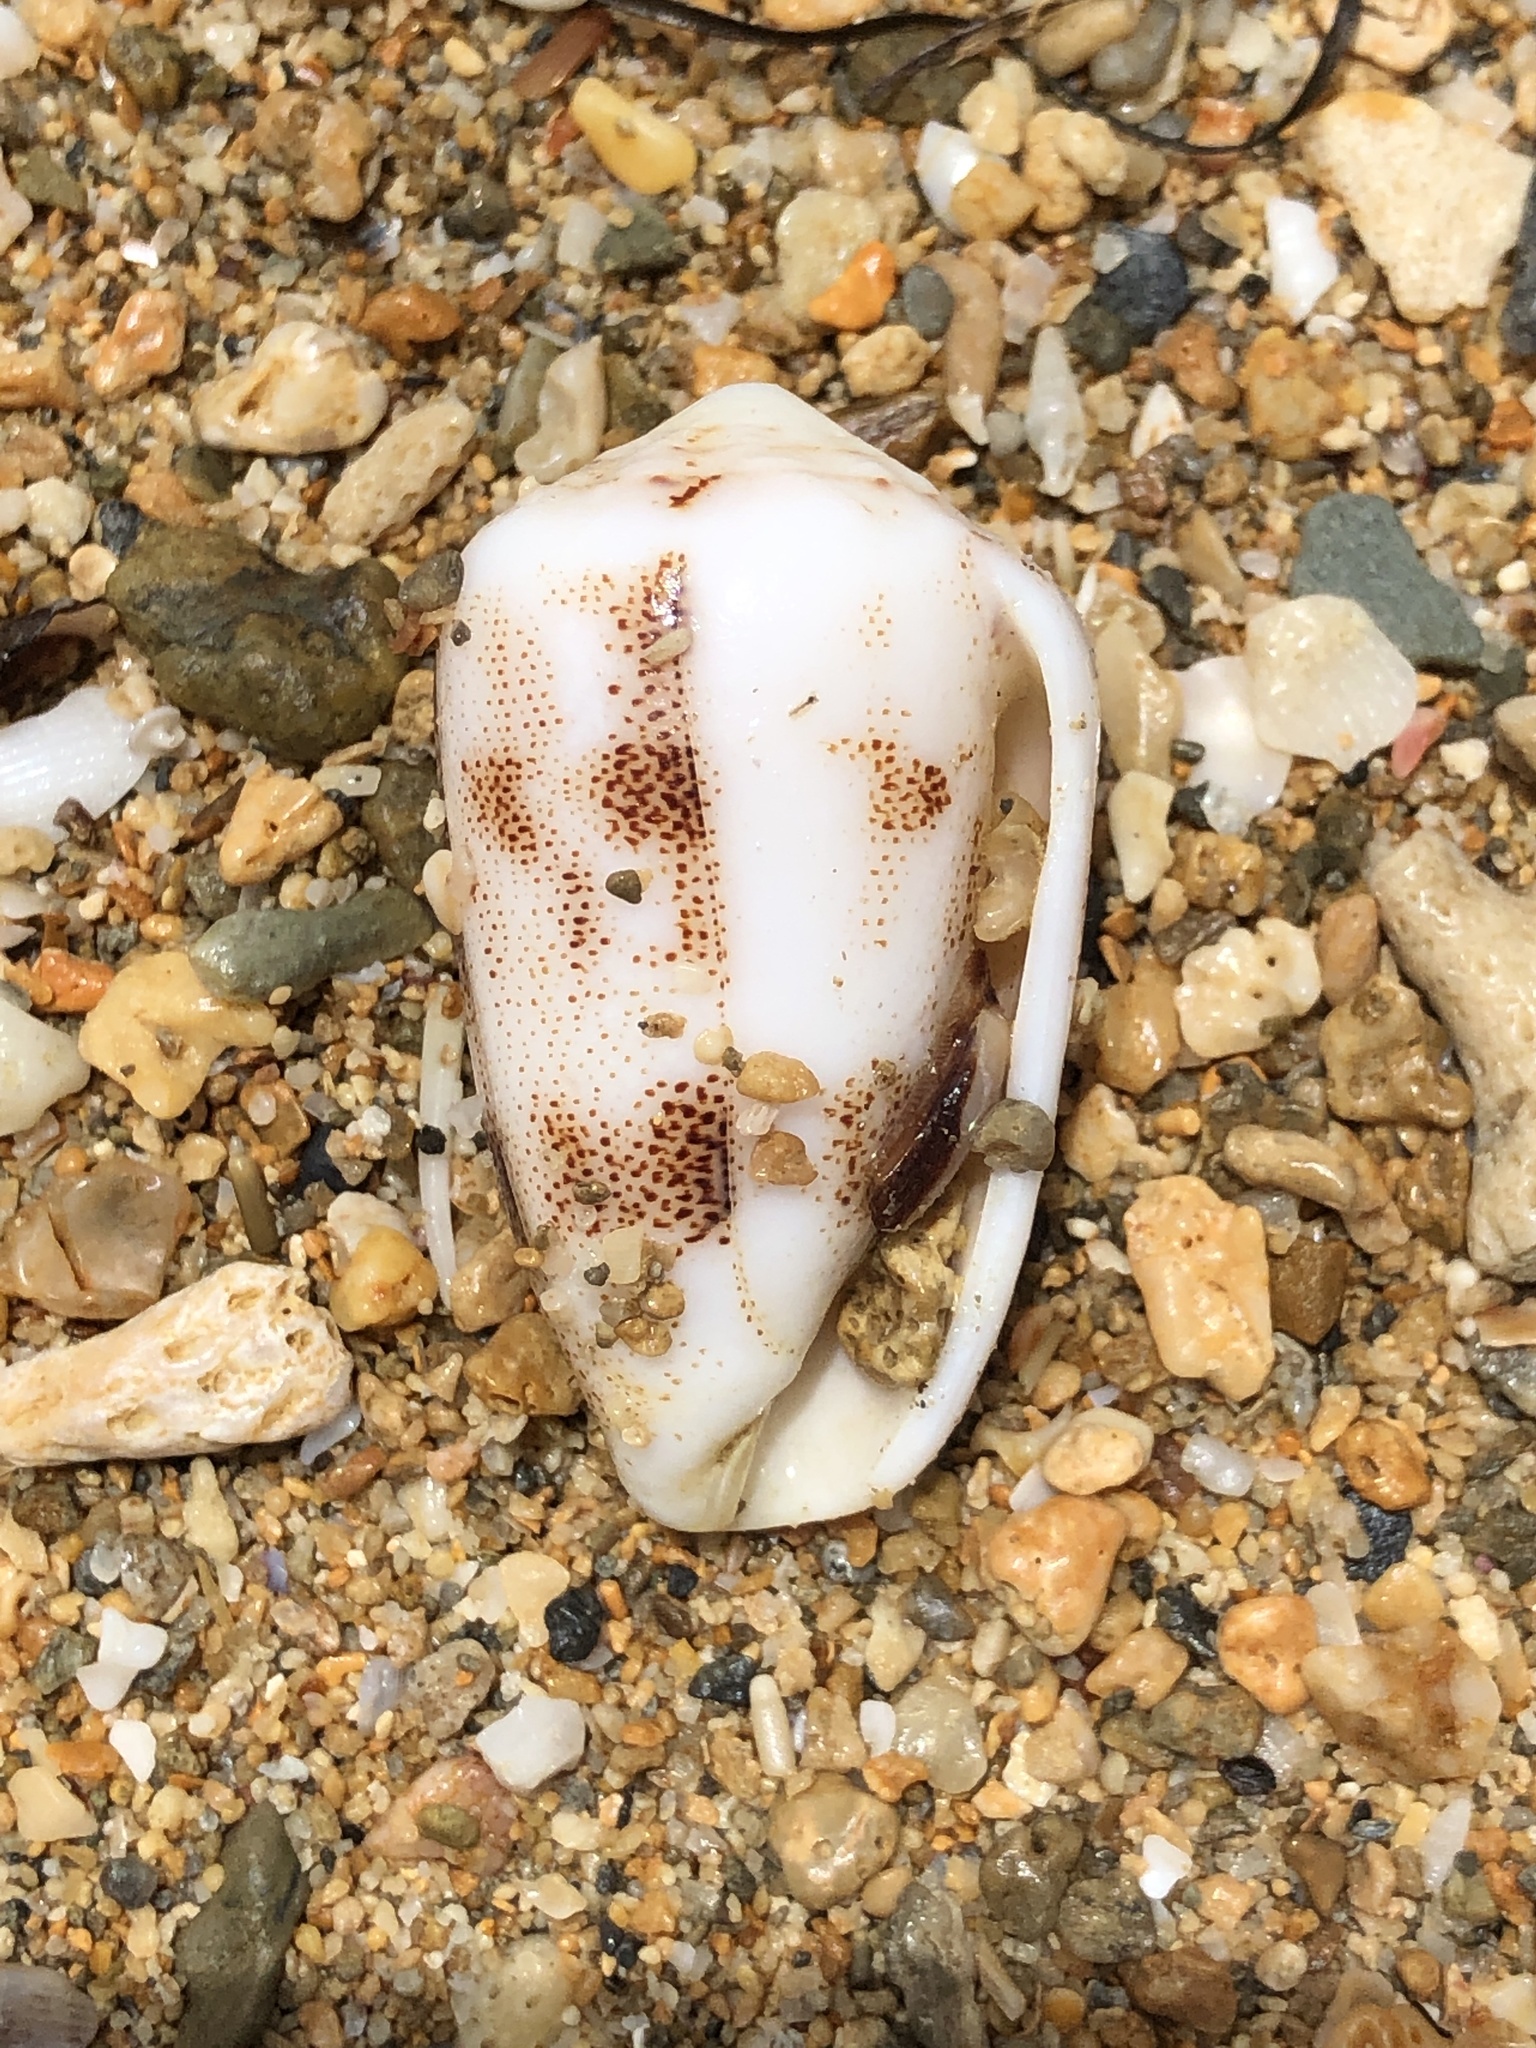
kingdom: Animalia
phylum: Mollusca
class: Gastropoda
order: Neogastropoda
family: Conidae
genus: Conus
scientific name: Conus arenatus
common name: Sand-dusted cone
